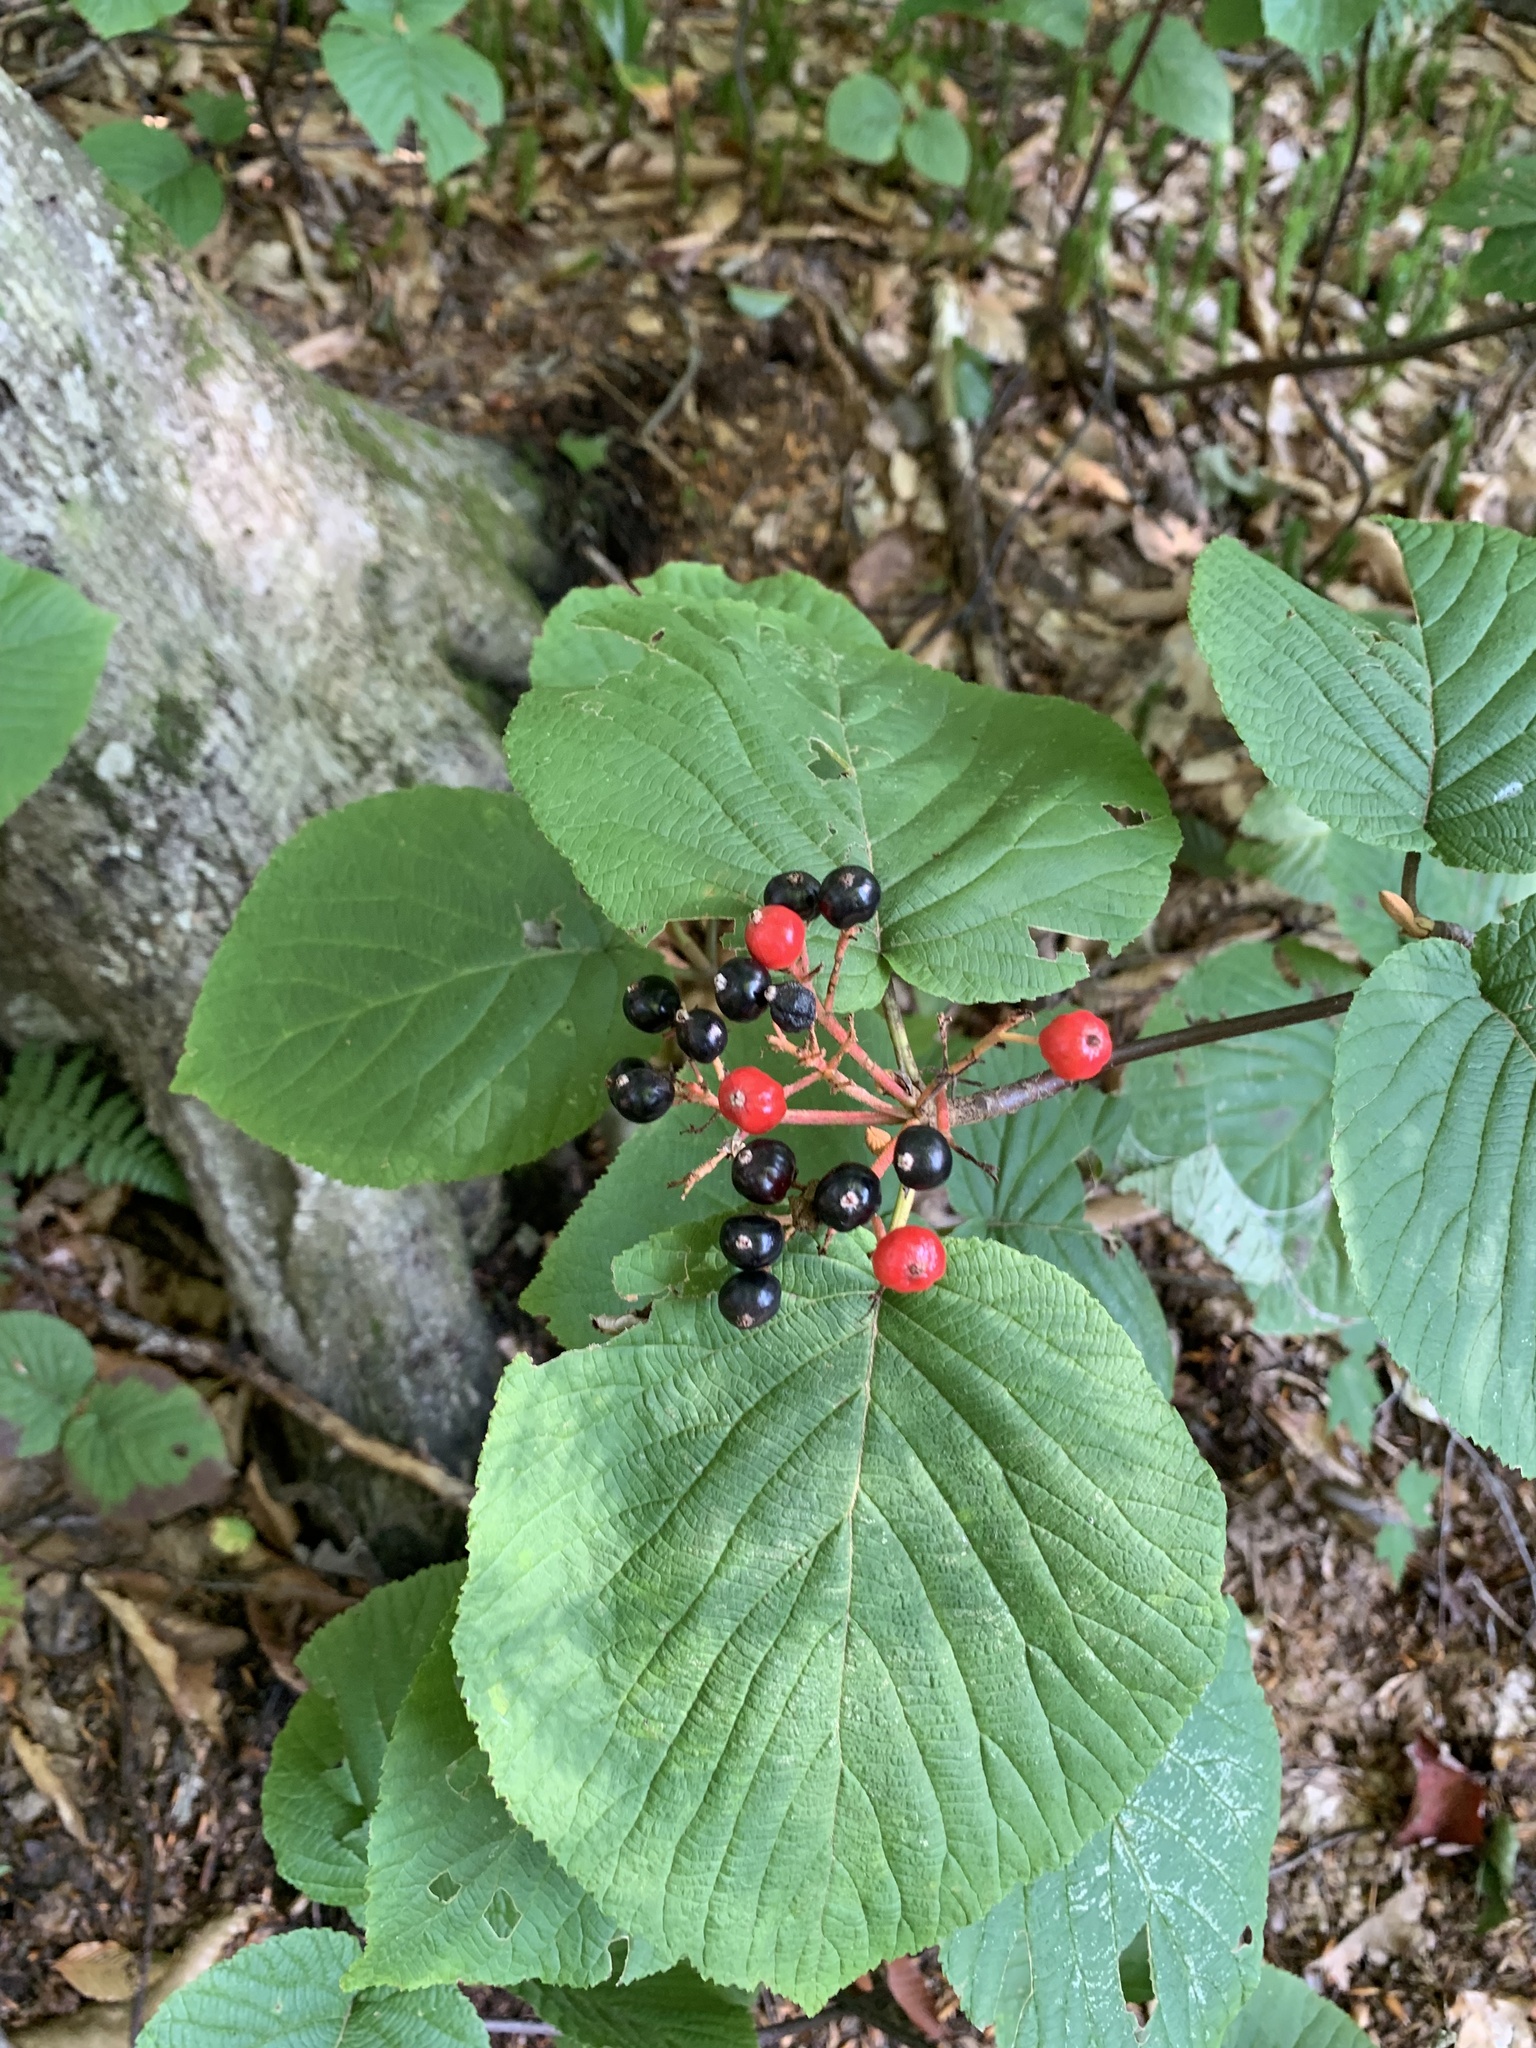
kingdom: Plantae
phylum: Tracheophyta
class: Magnoliopsida
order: Dipsacales
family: Viburnaceae
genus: Viburnum
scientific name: Viburnum lantanoides
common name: Hobblebush
